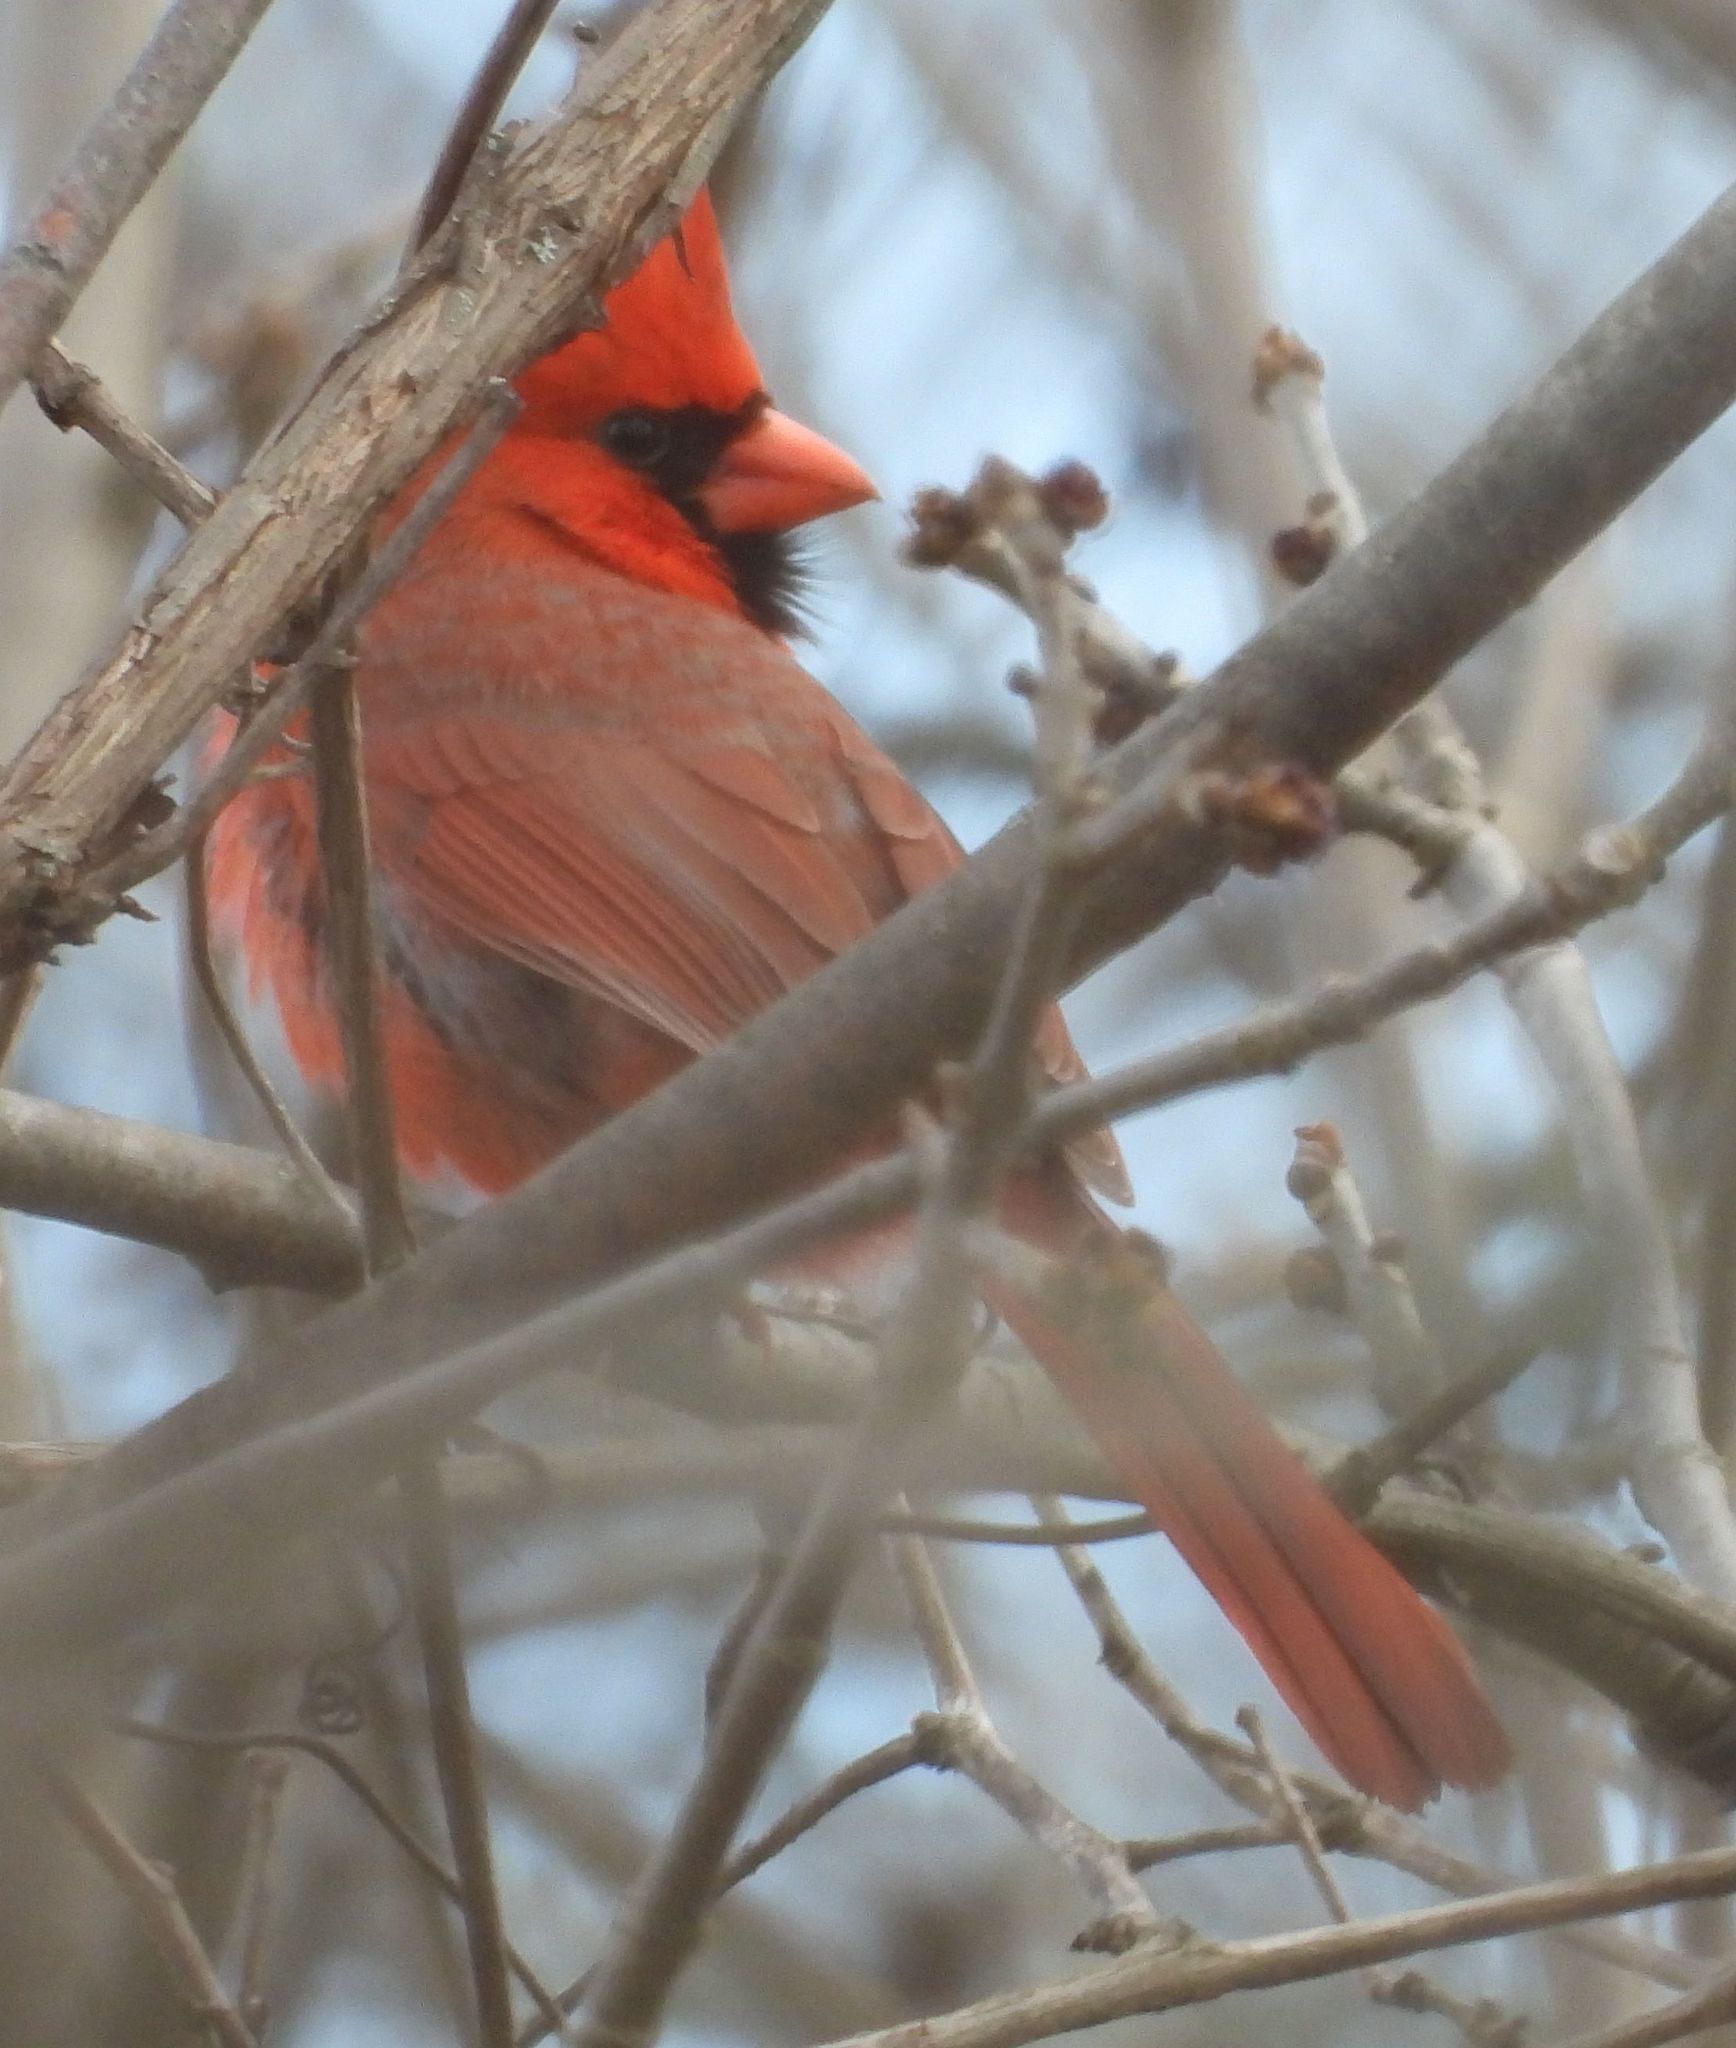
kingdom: Animalia
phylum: Chordata
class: Aves
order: Passeriformes
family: Cardinalidae
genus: Cardinalis
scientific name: Cardinalis cardinalis
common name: Northern cardinal
